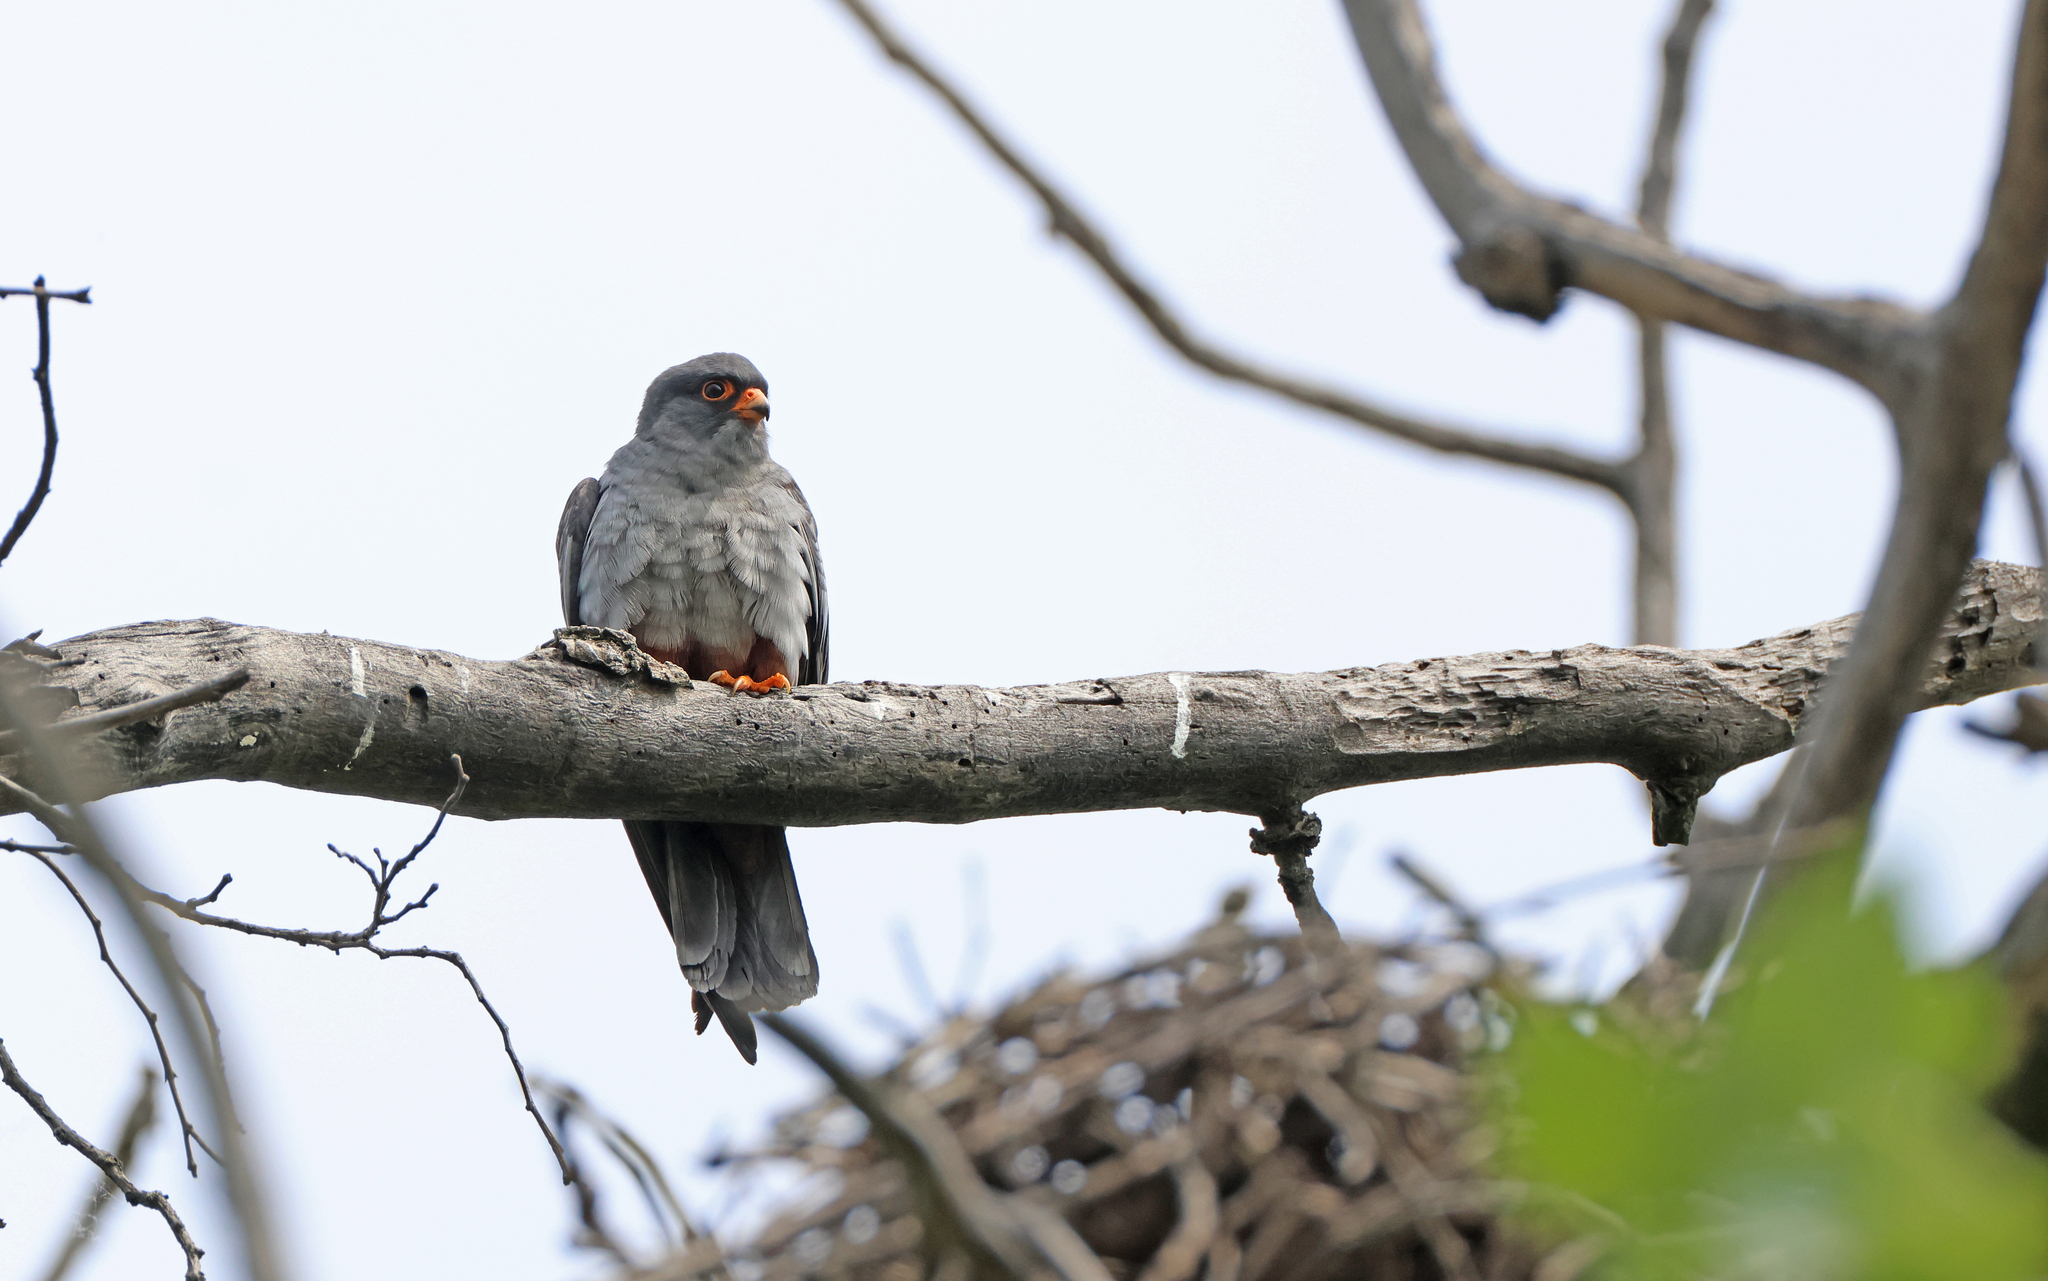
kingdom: Animalia
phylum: Chordata
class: Aves
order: Falconiformes
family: Falconidae
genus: Falco
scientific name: Falco vespertinus
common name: Red-footed falcon
